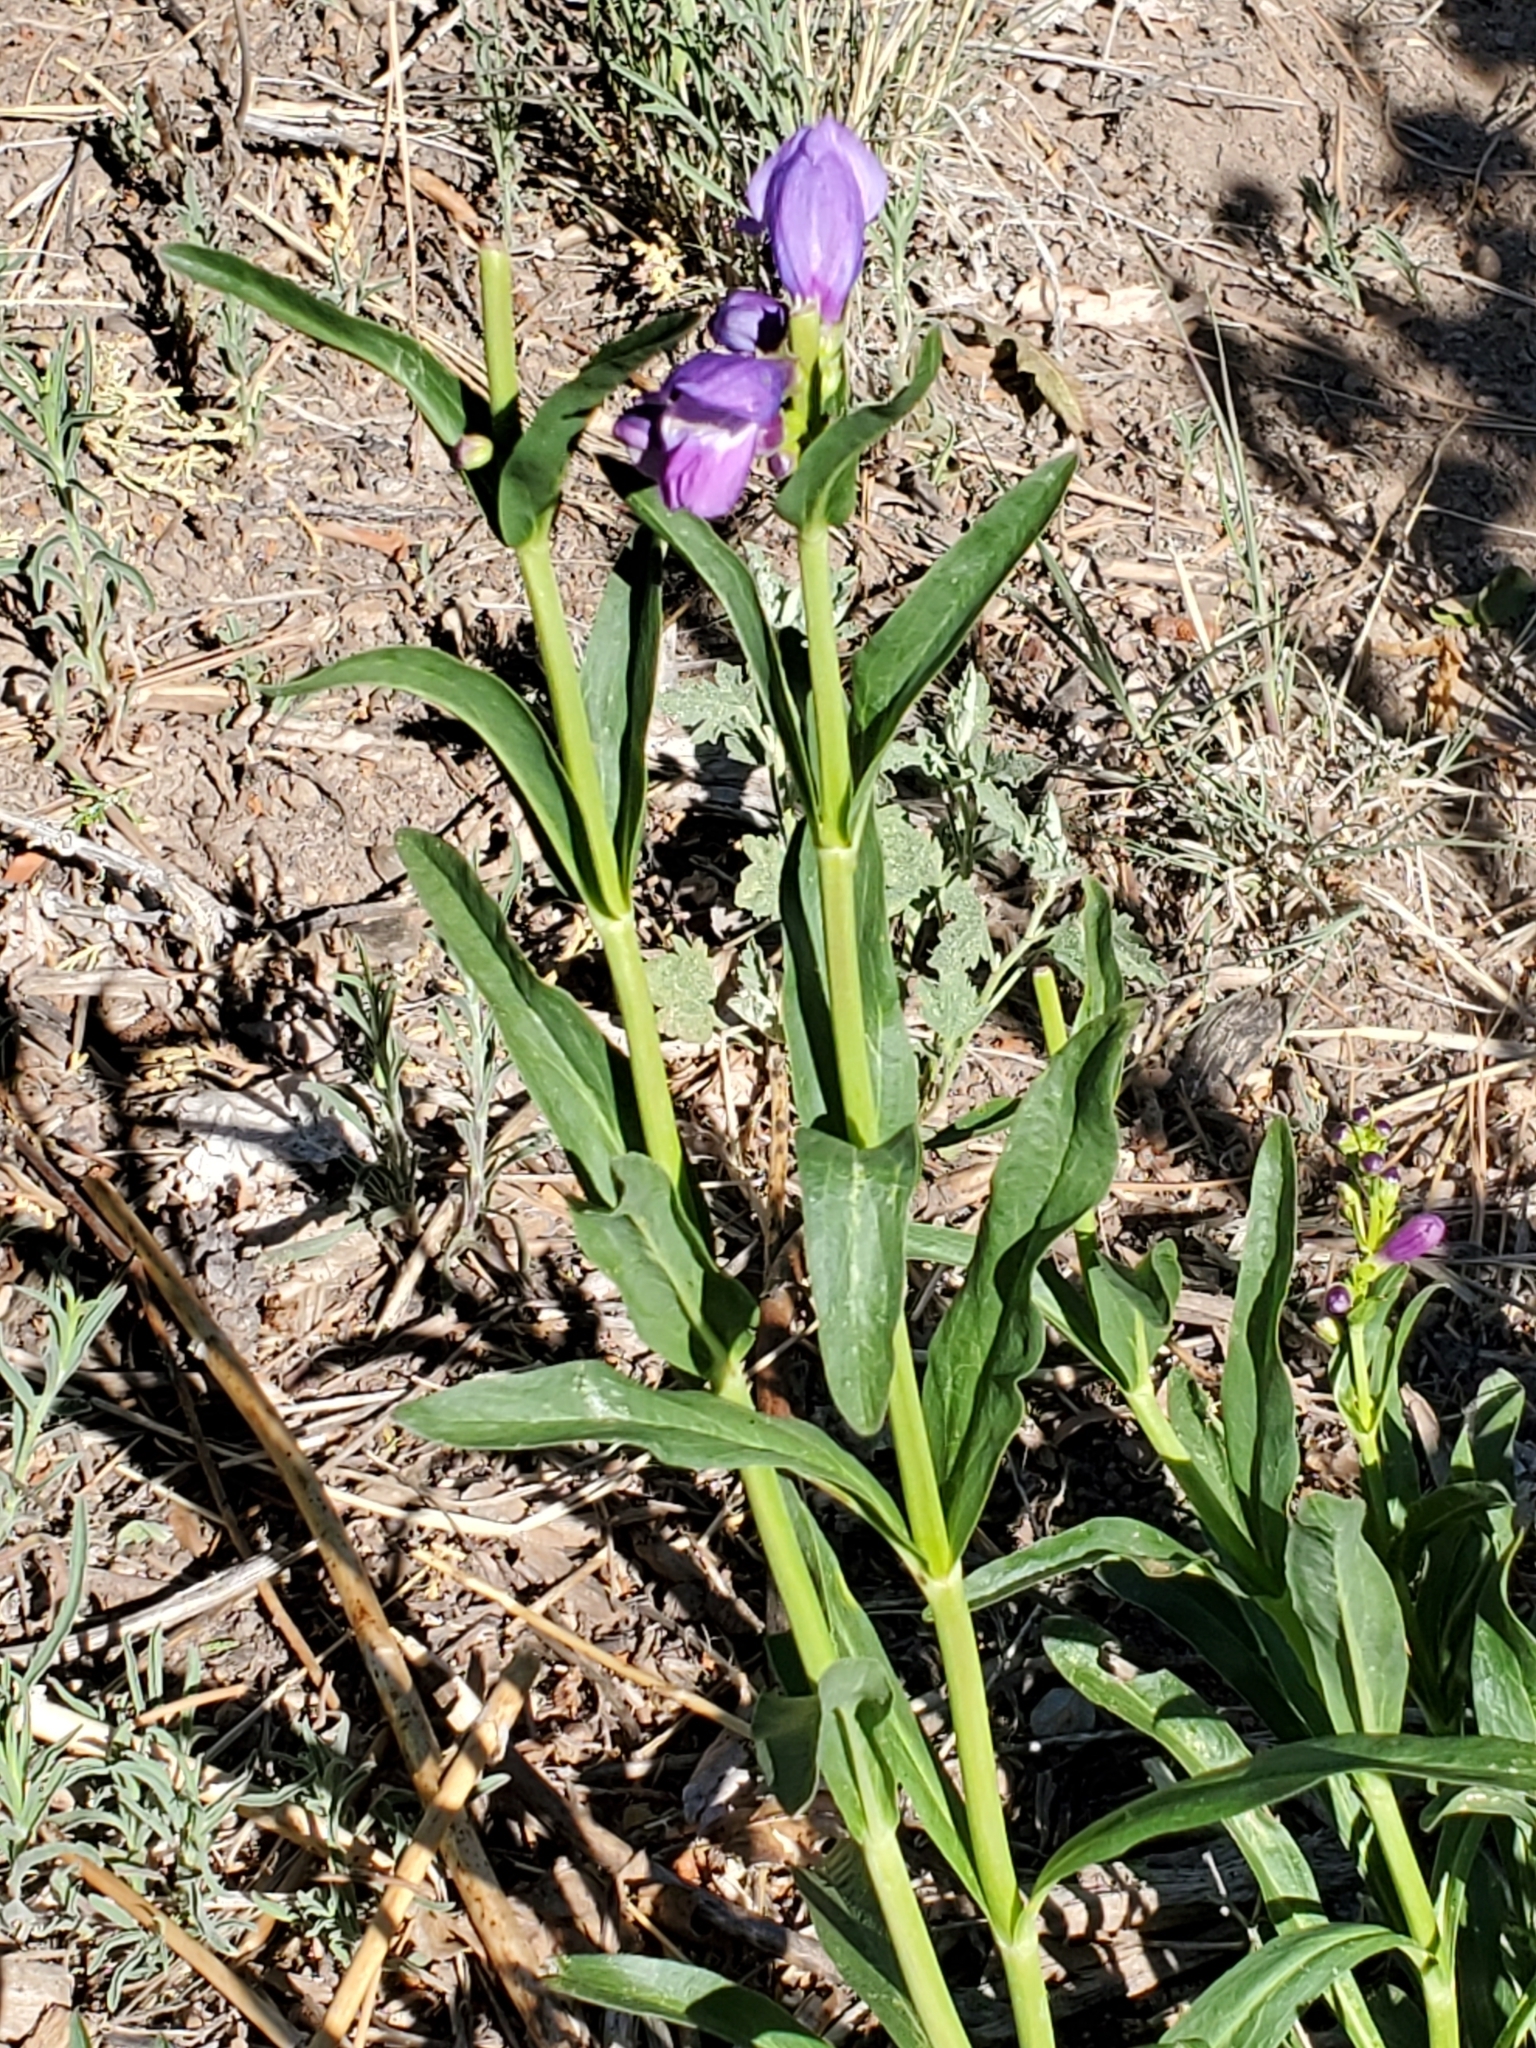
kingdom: Plantae
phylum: Tracheophyta
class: Magnoliopsida
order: Lamiales
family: Plantaginaceae
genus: Penstemon
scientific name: Penstemon strictus
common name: Rocky mountain penstemon
